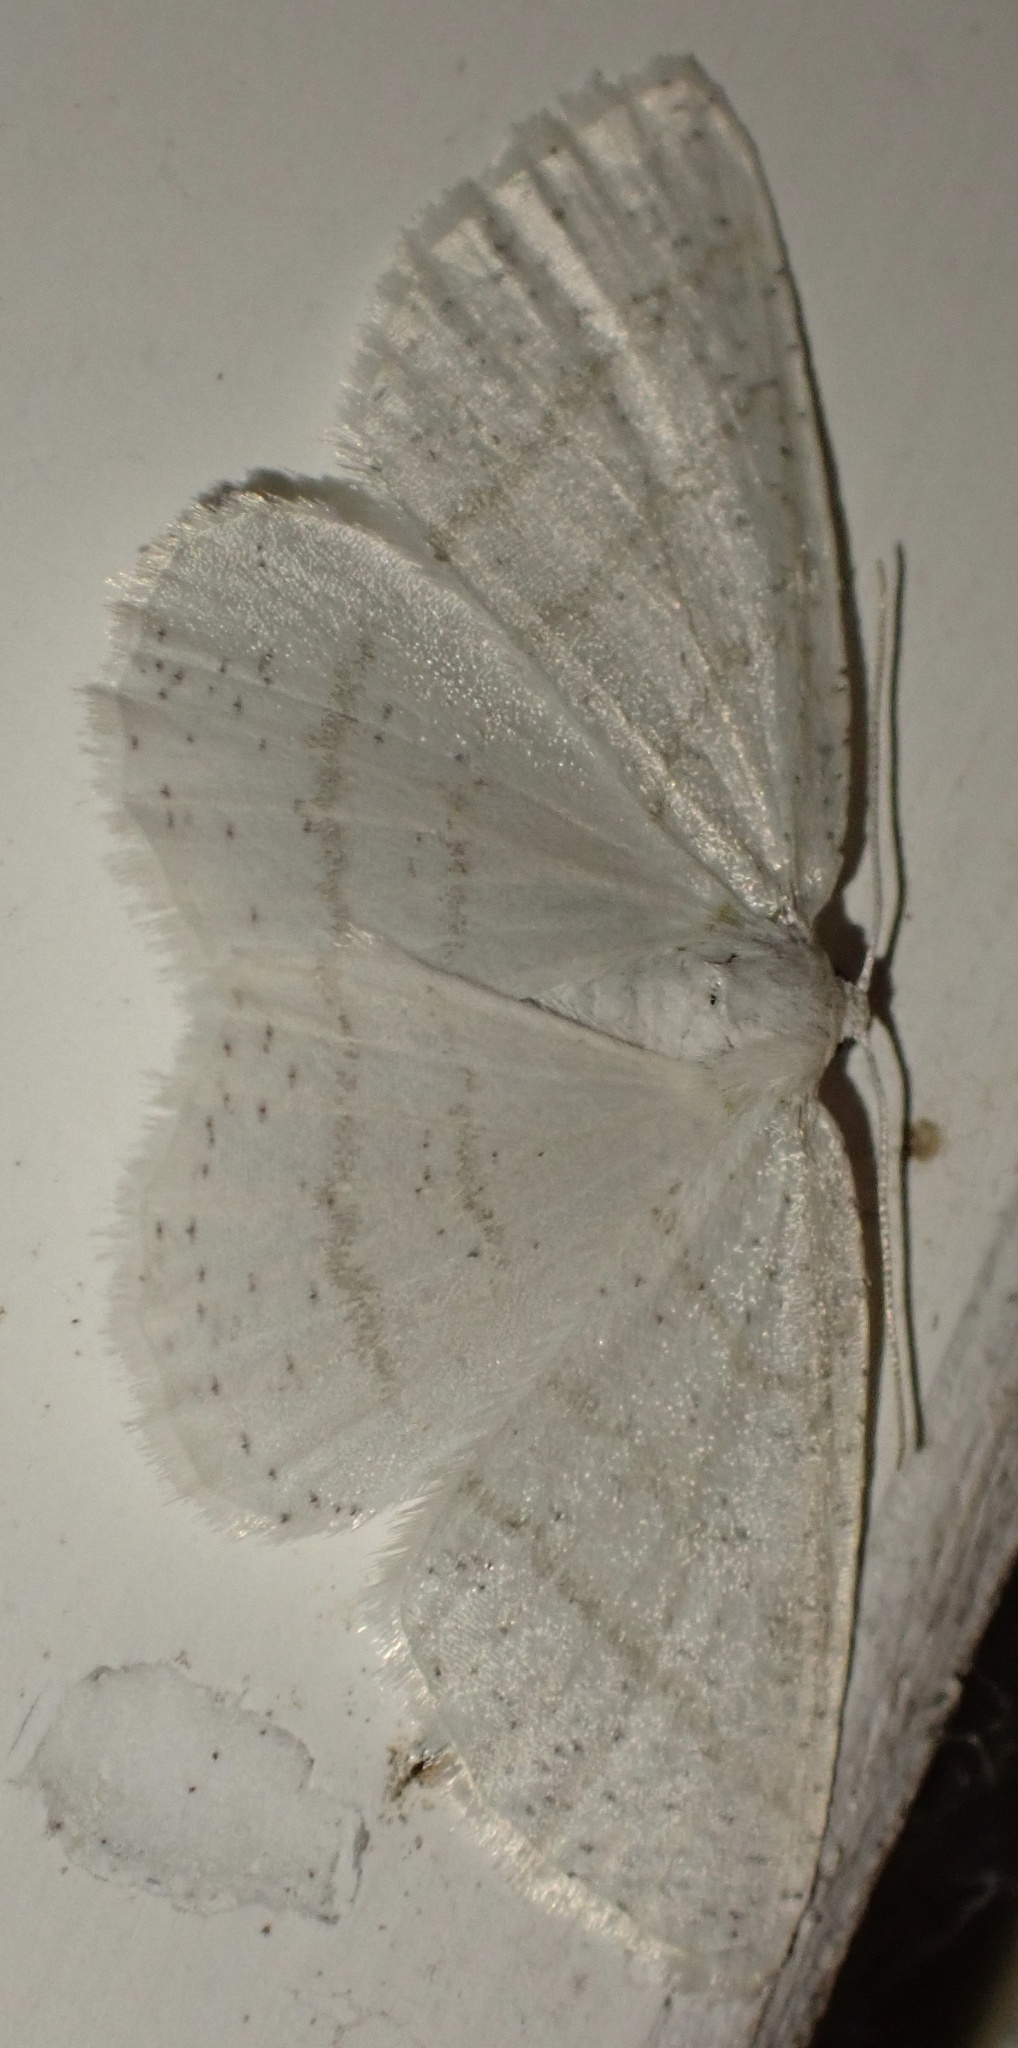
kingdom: Animalia
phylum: Arthropoda
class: Insecta
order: Lepidoptera
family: Geometridae
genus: Cabera
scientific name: Cabera pusaria
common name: Common white wave
